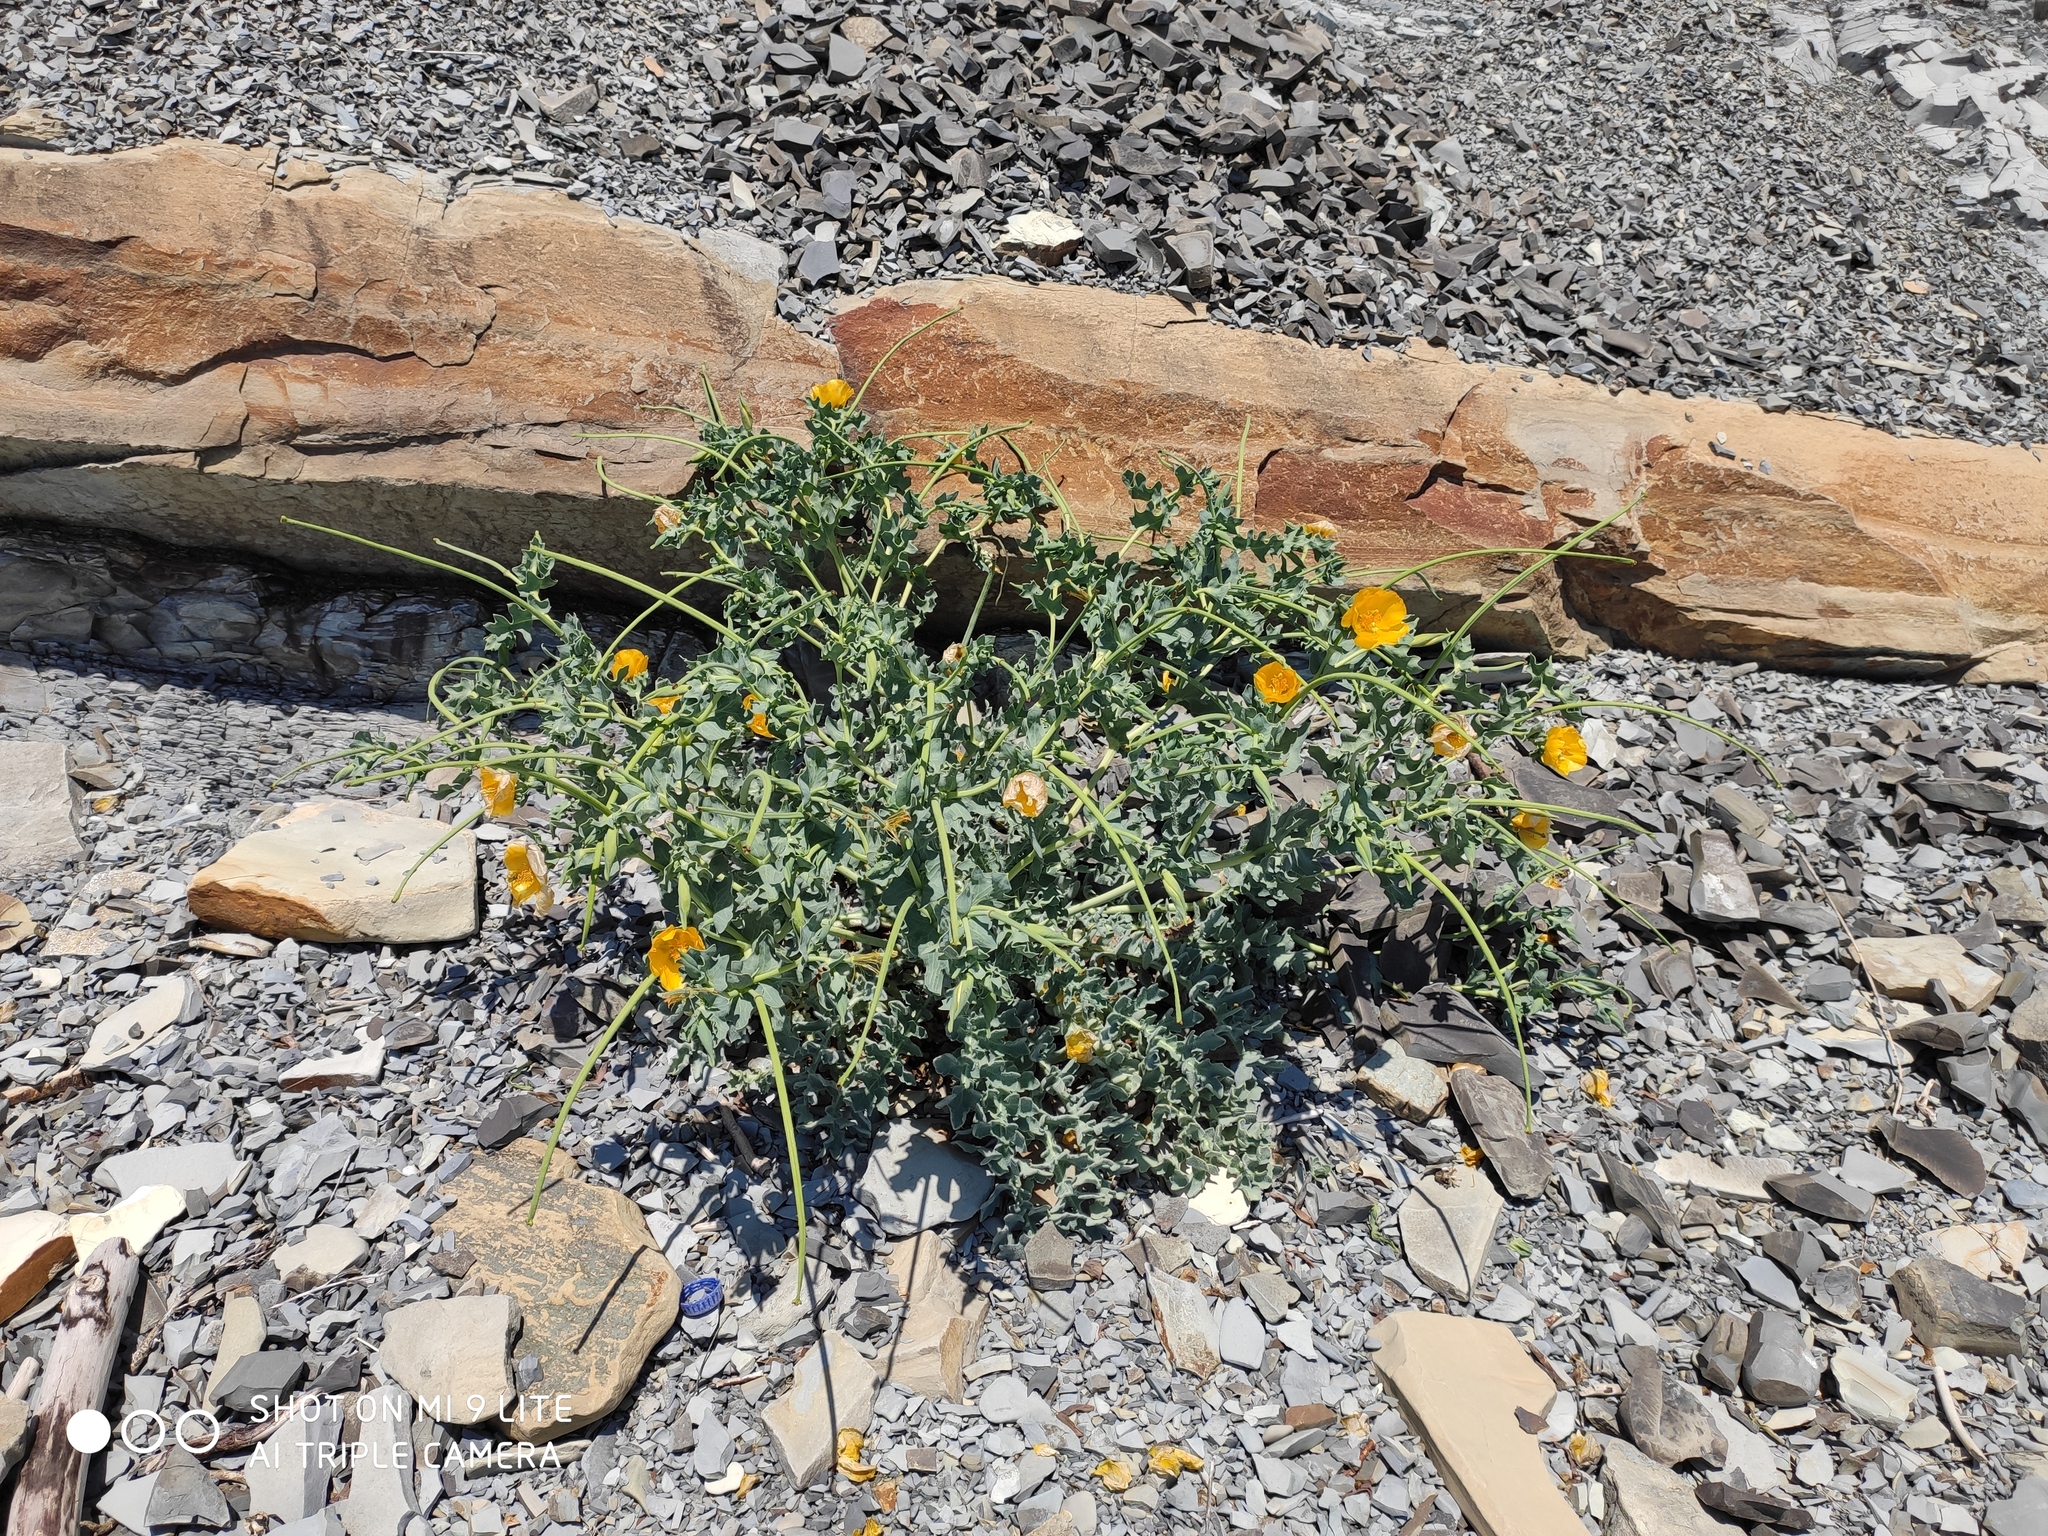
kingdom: Plantae
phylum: Tracheophyta
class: Magnoliopsida
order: Ranunculales
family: Papaveraceae
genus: Glaucium
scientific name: Glaucium flavum
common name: Yellow horned-poppy
